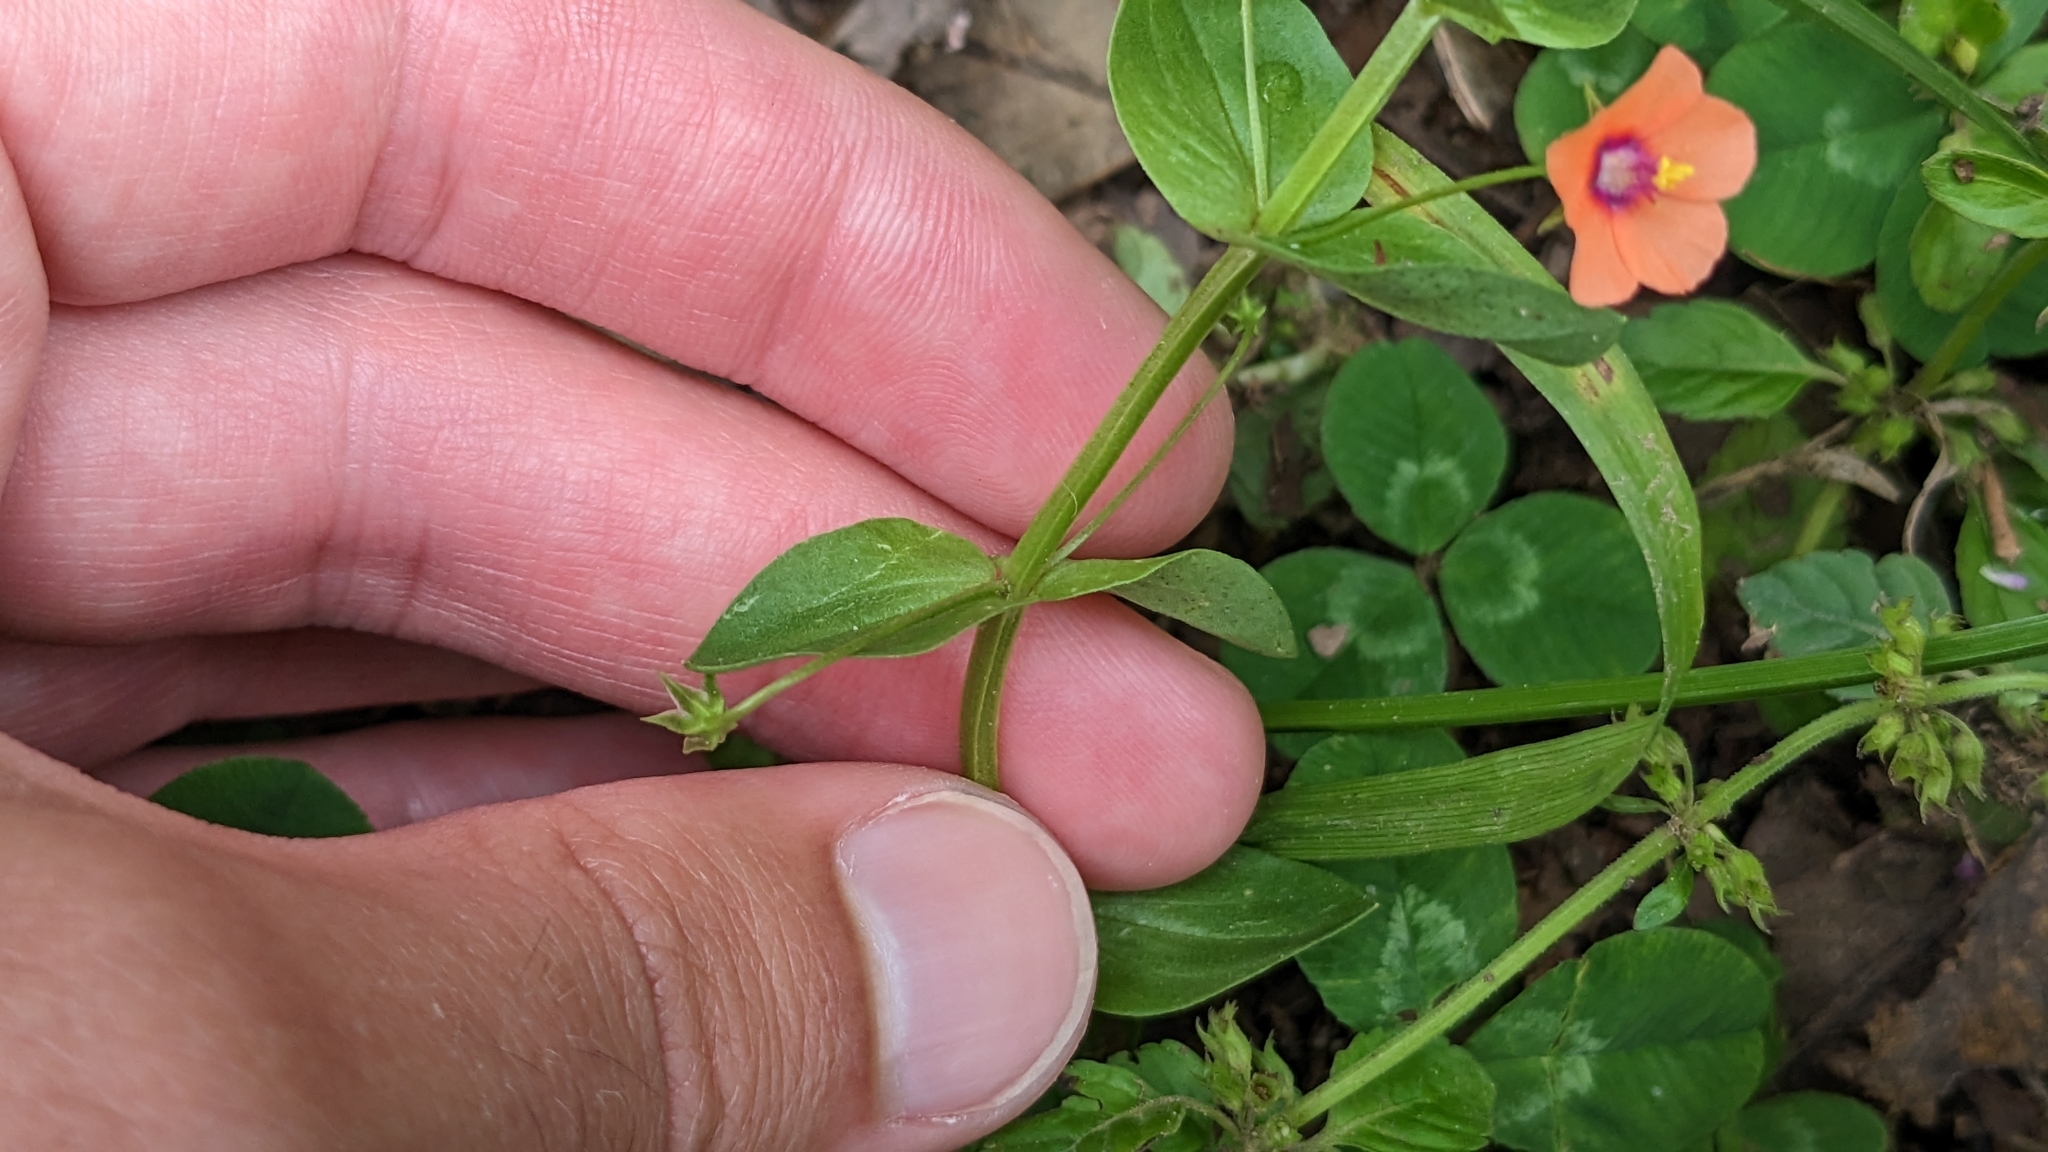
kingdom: Plantae
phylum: Tracheophyta
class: Magnoliopsida
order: Ericales
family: Primulaceae
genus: Lysimachia
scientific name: Lysimachia arvensis
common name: Scarlet pimpernel
